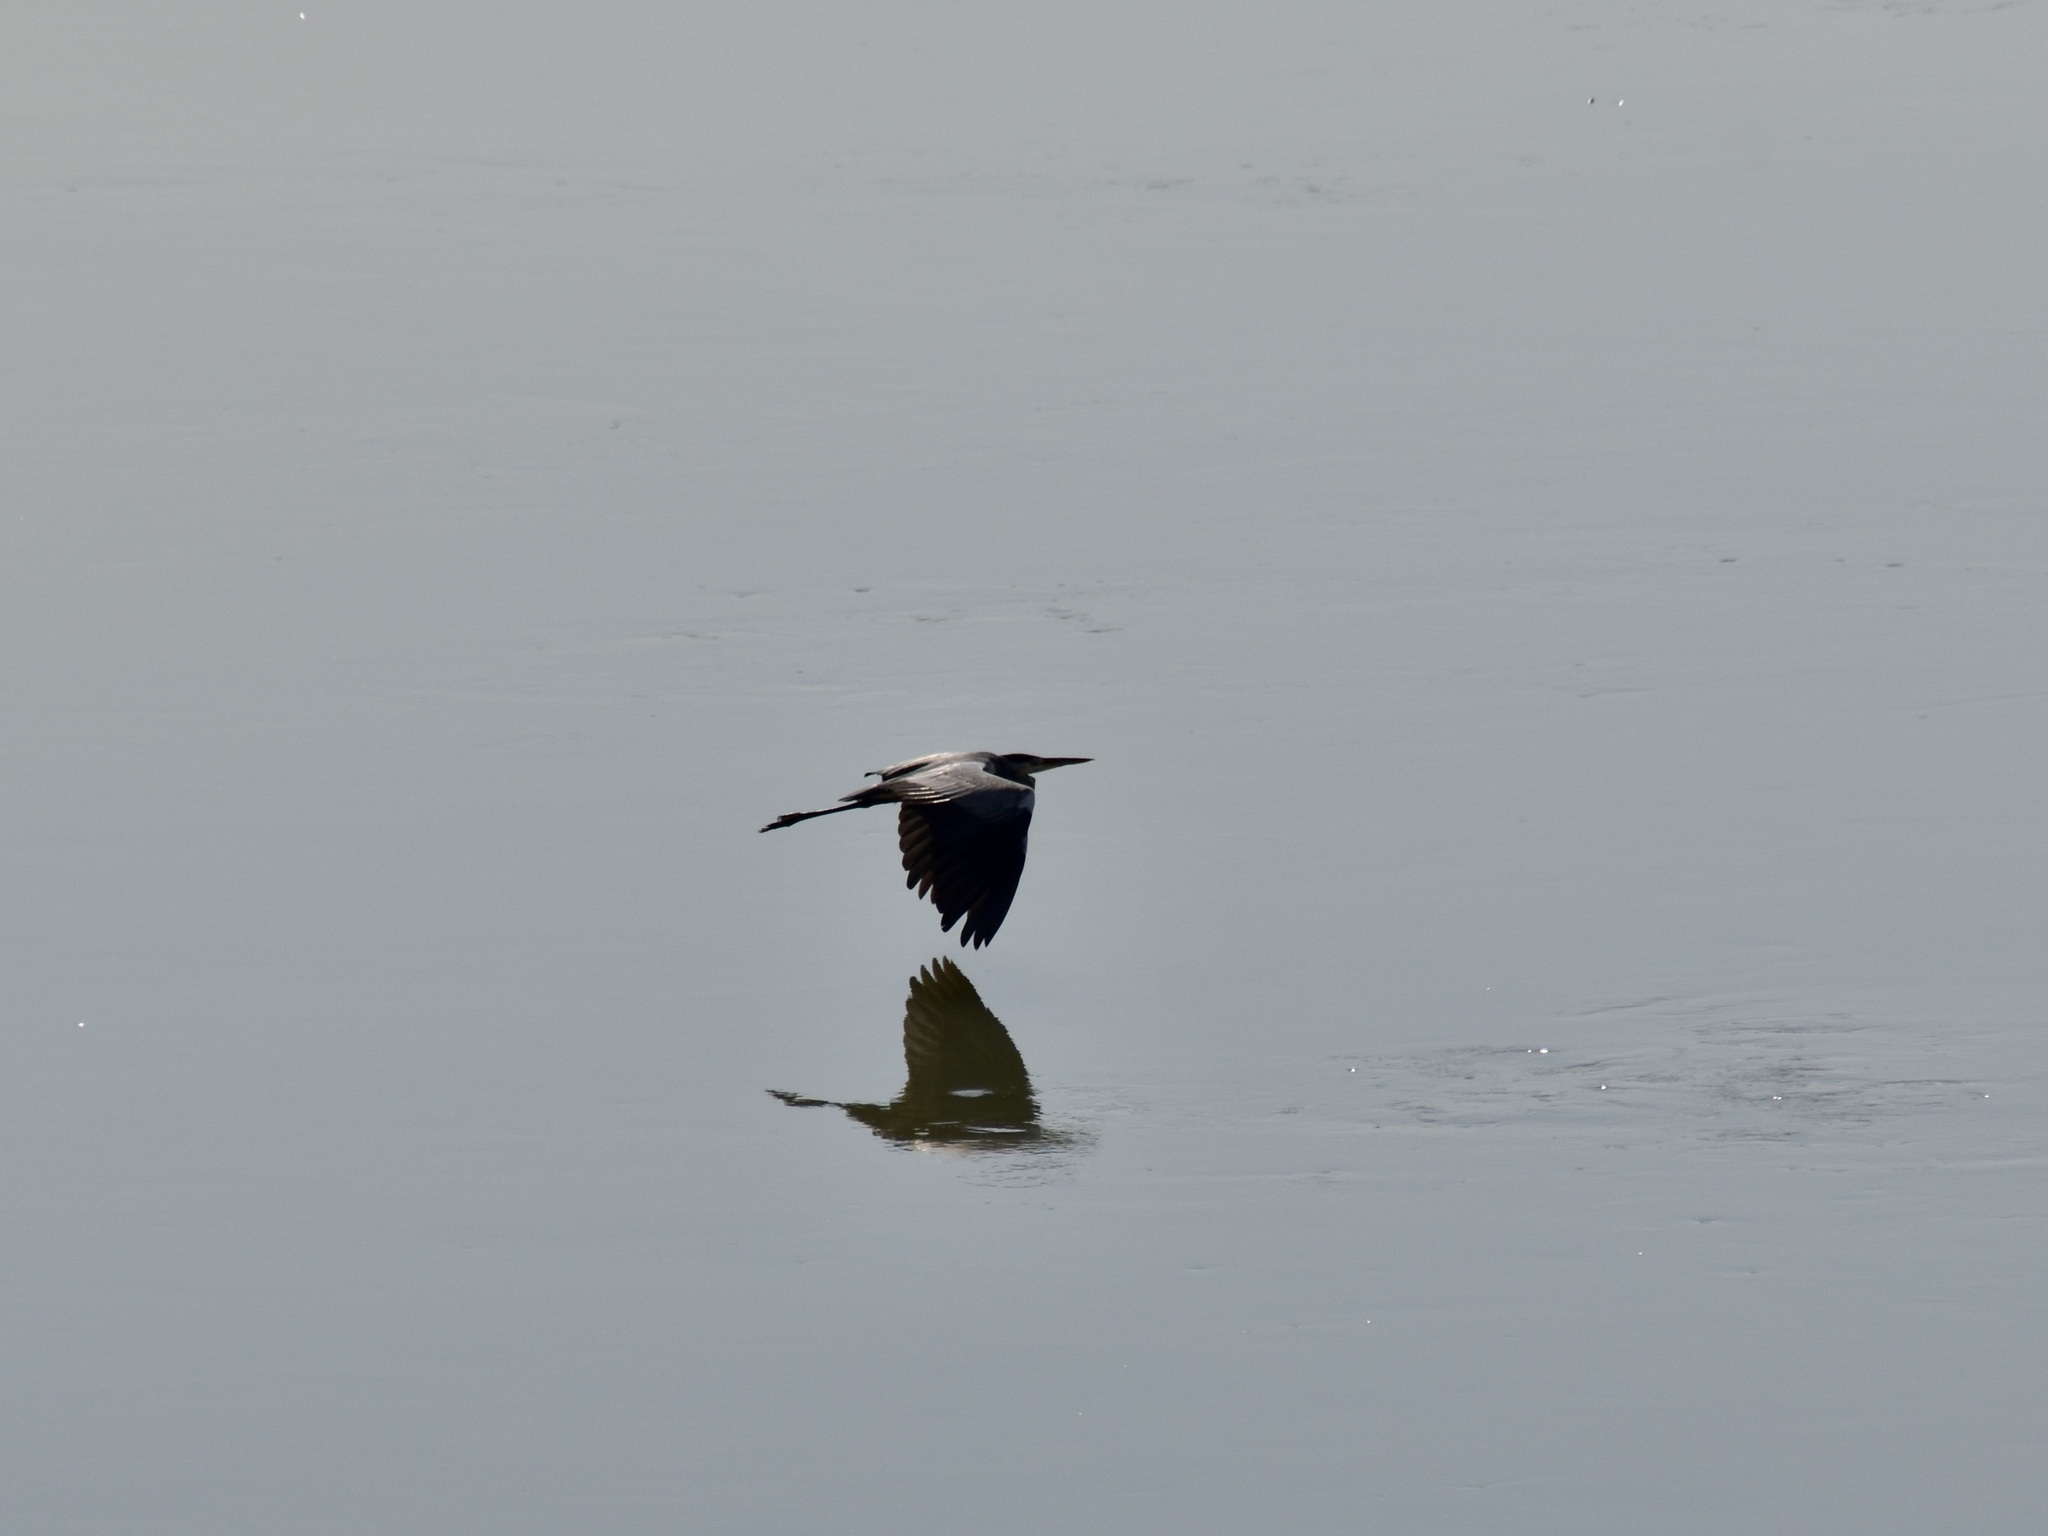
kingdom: Animalia
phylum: Chordata
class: Aves
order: Pelecaniformes
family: Ardeidae
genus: Ardea
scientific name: Ardea cinerea
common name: Grey heron
